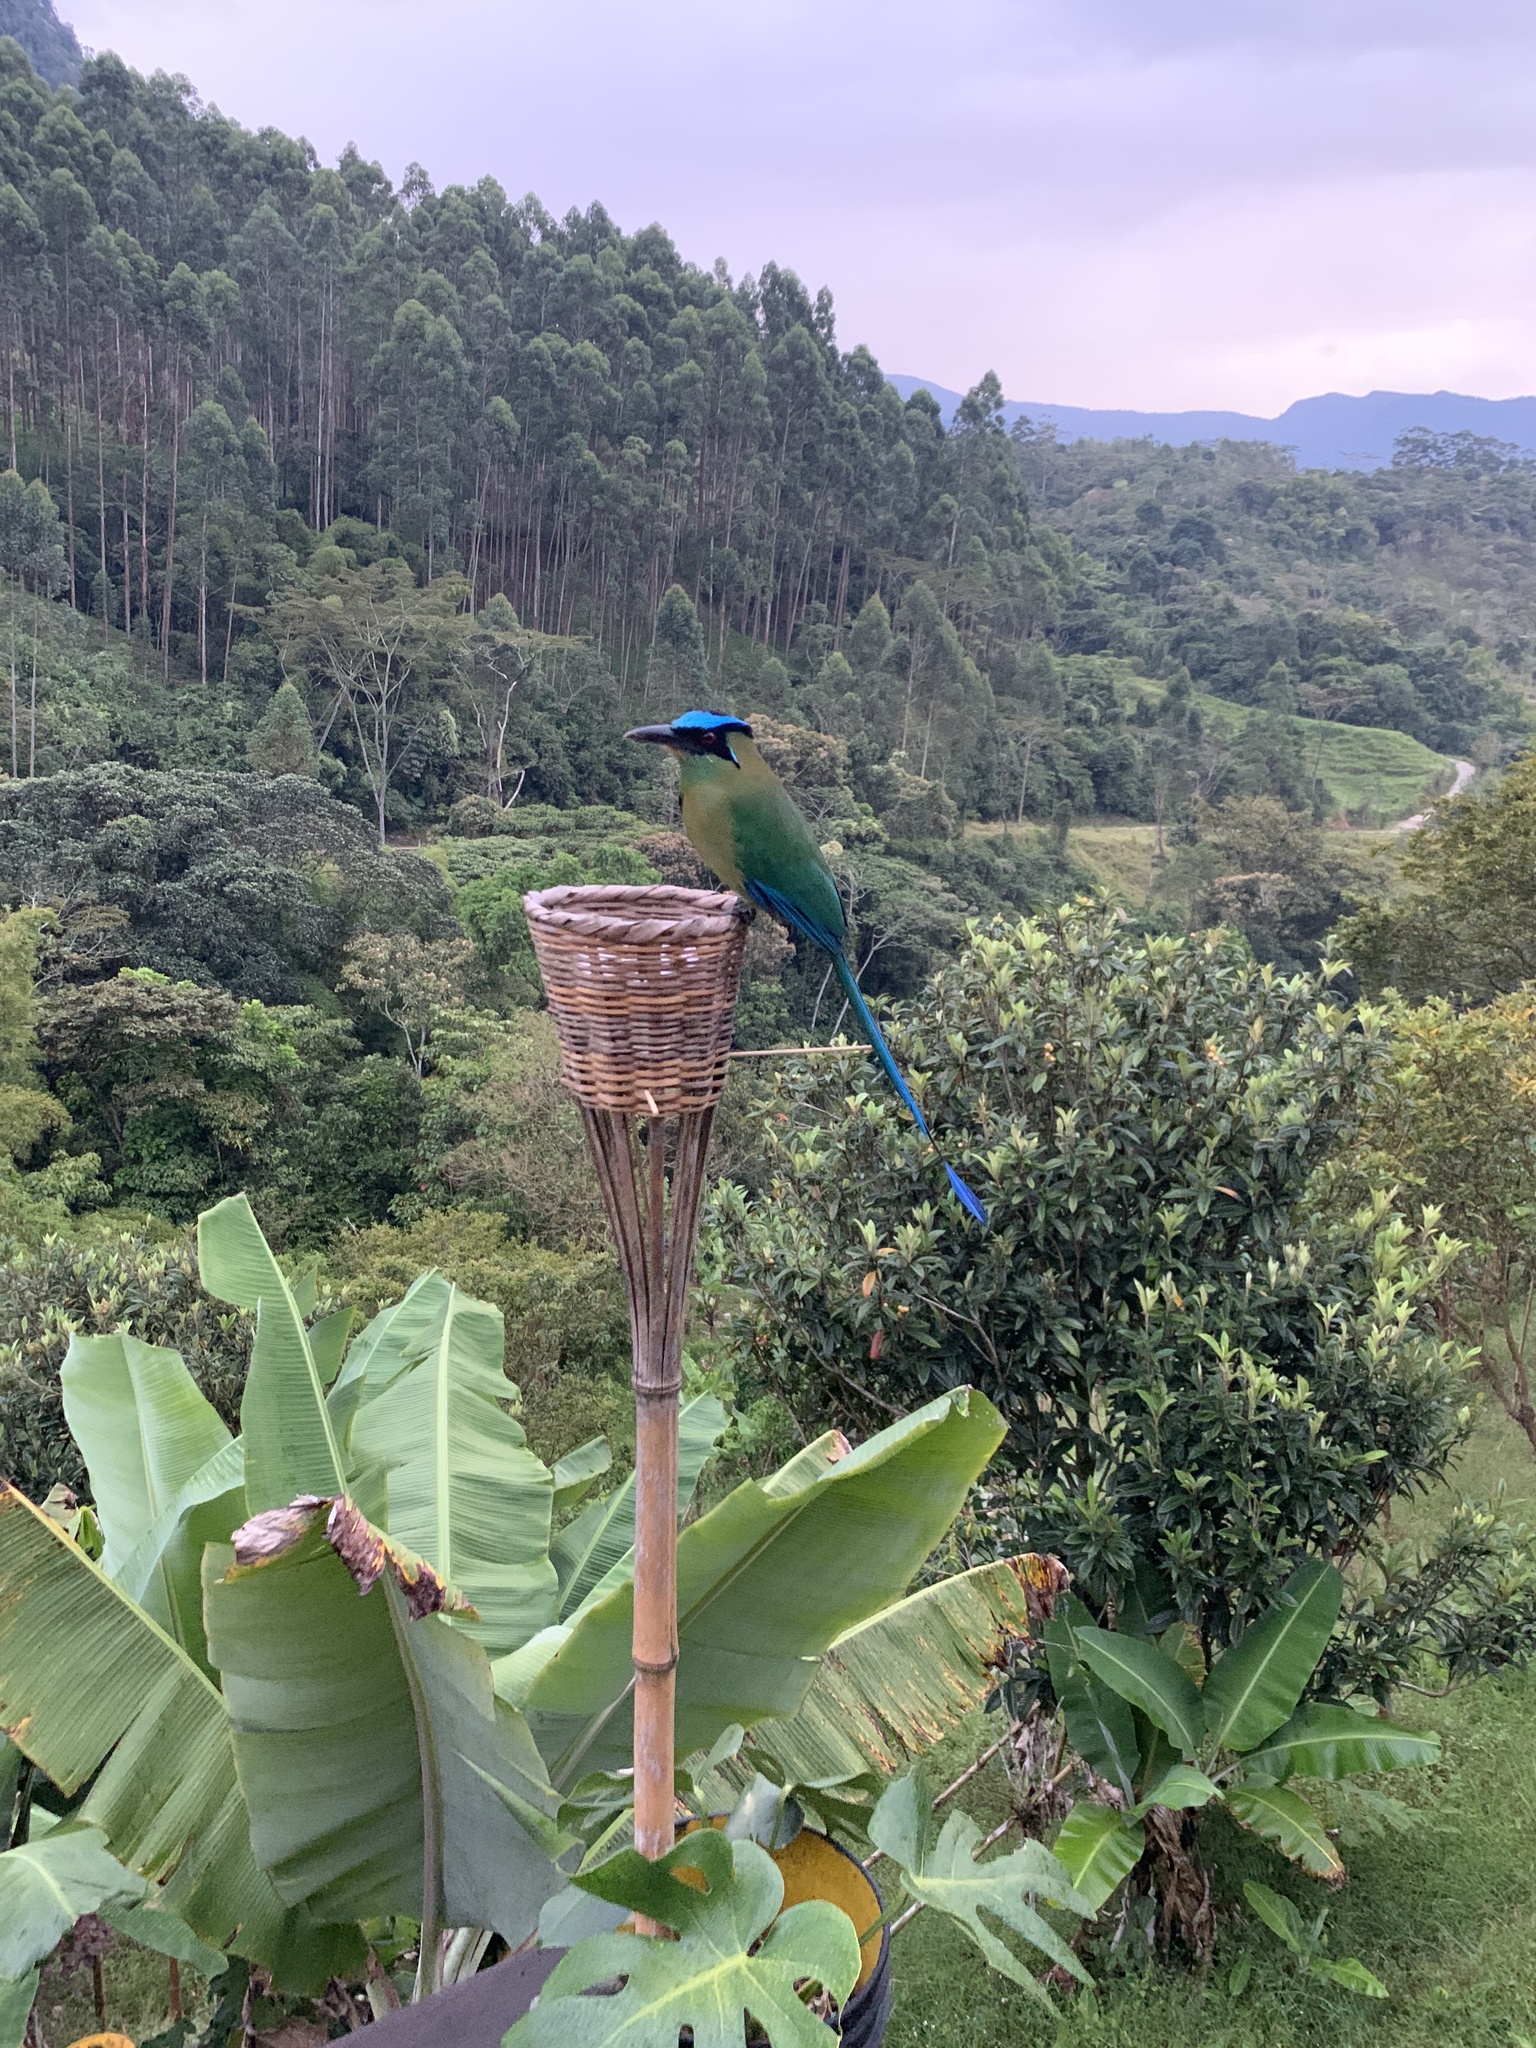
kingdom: Animalia
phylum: Chordata
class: Aves
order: Coraciiformes
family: Momotidae
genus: Momotus
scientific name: Momotus aequatorialis
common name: Andean motmot
